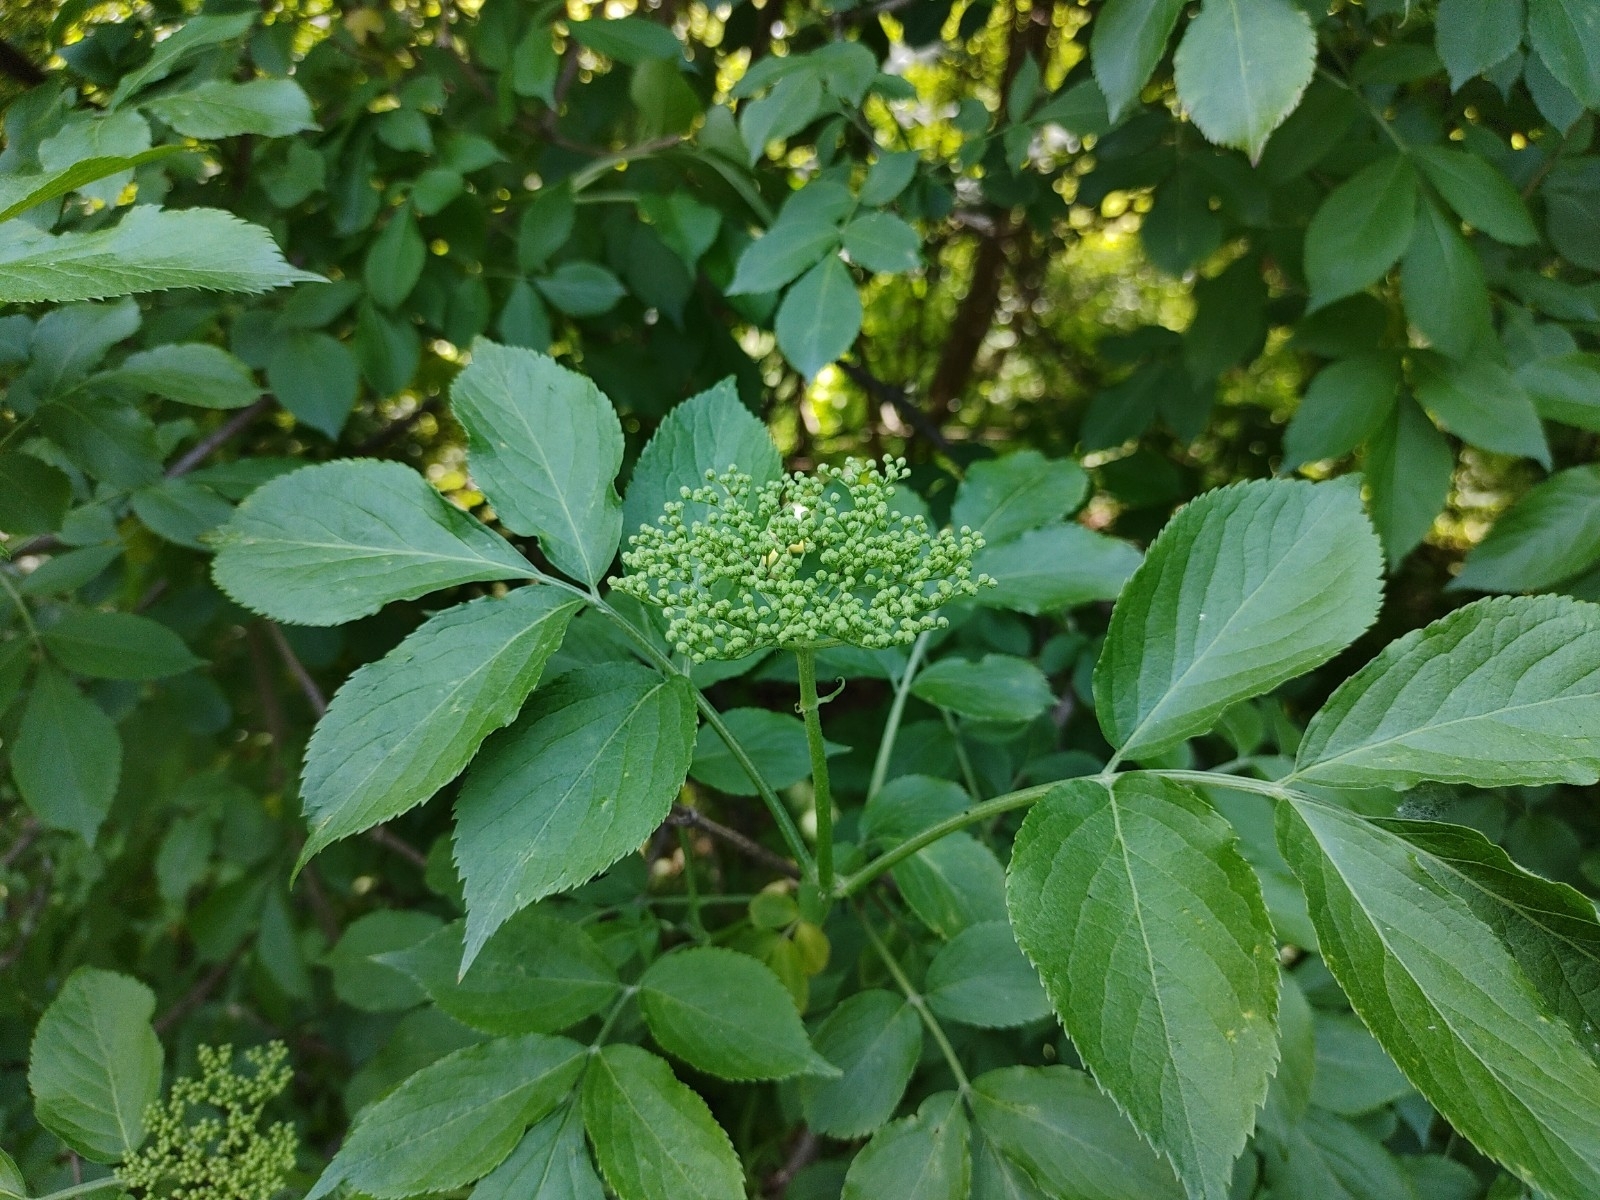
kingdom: Plantae
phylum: Tracheophyta
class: Magnoliopsida
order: Dipsacales
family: Viburnaceae
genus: Sambucus
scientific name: Sambucus nigra
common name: Elder
